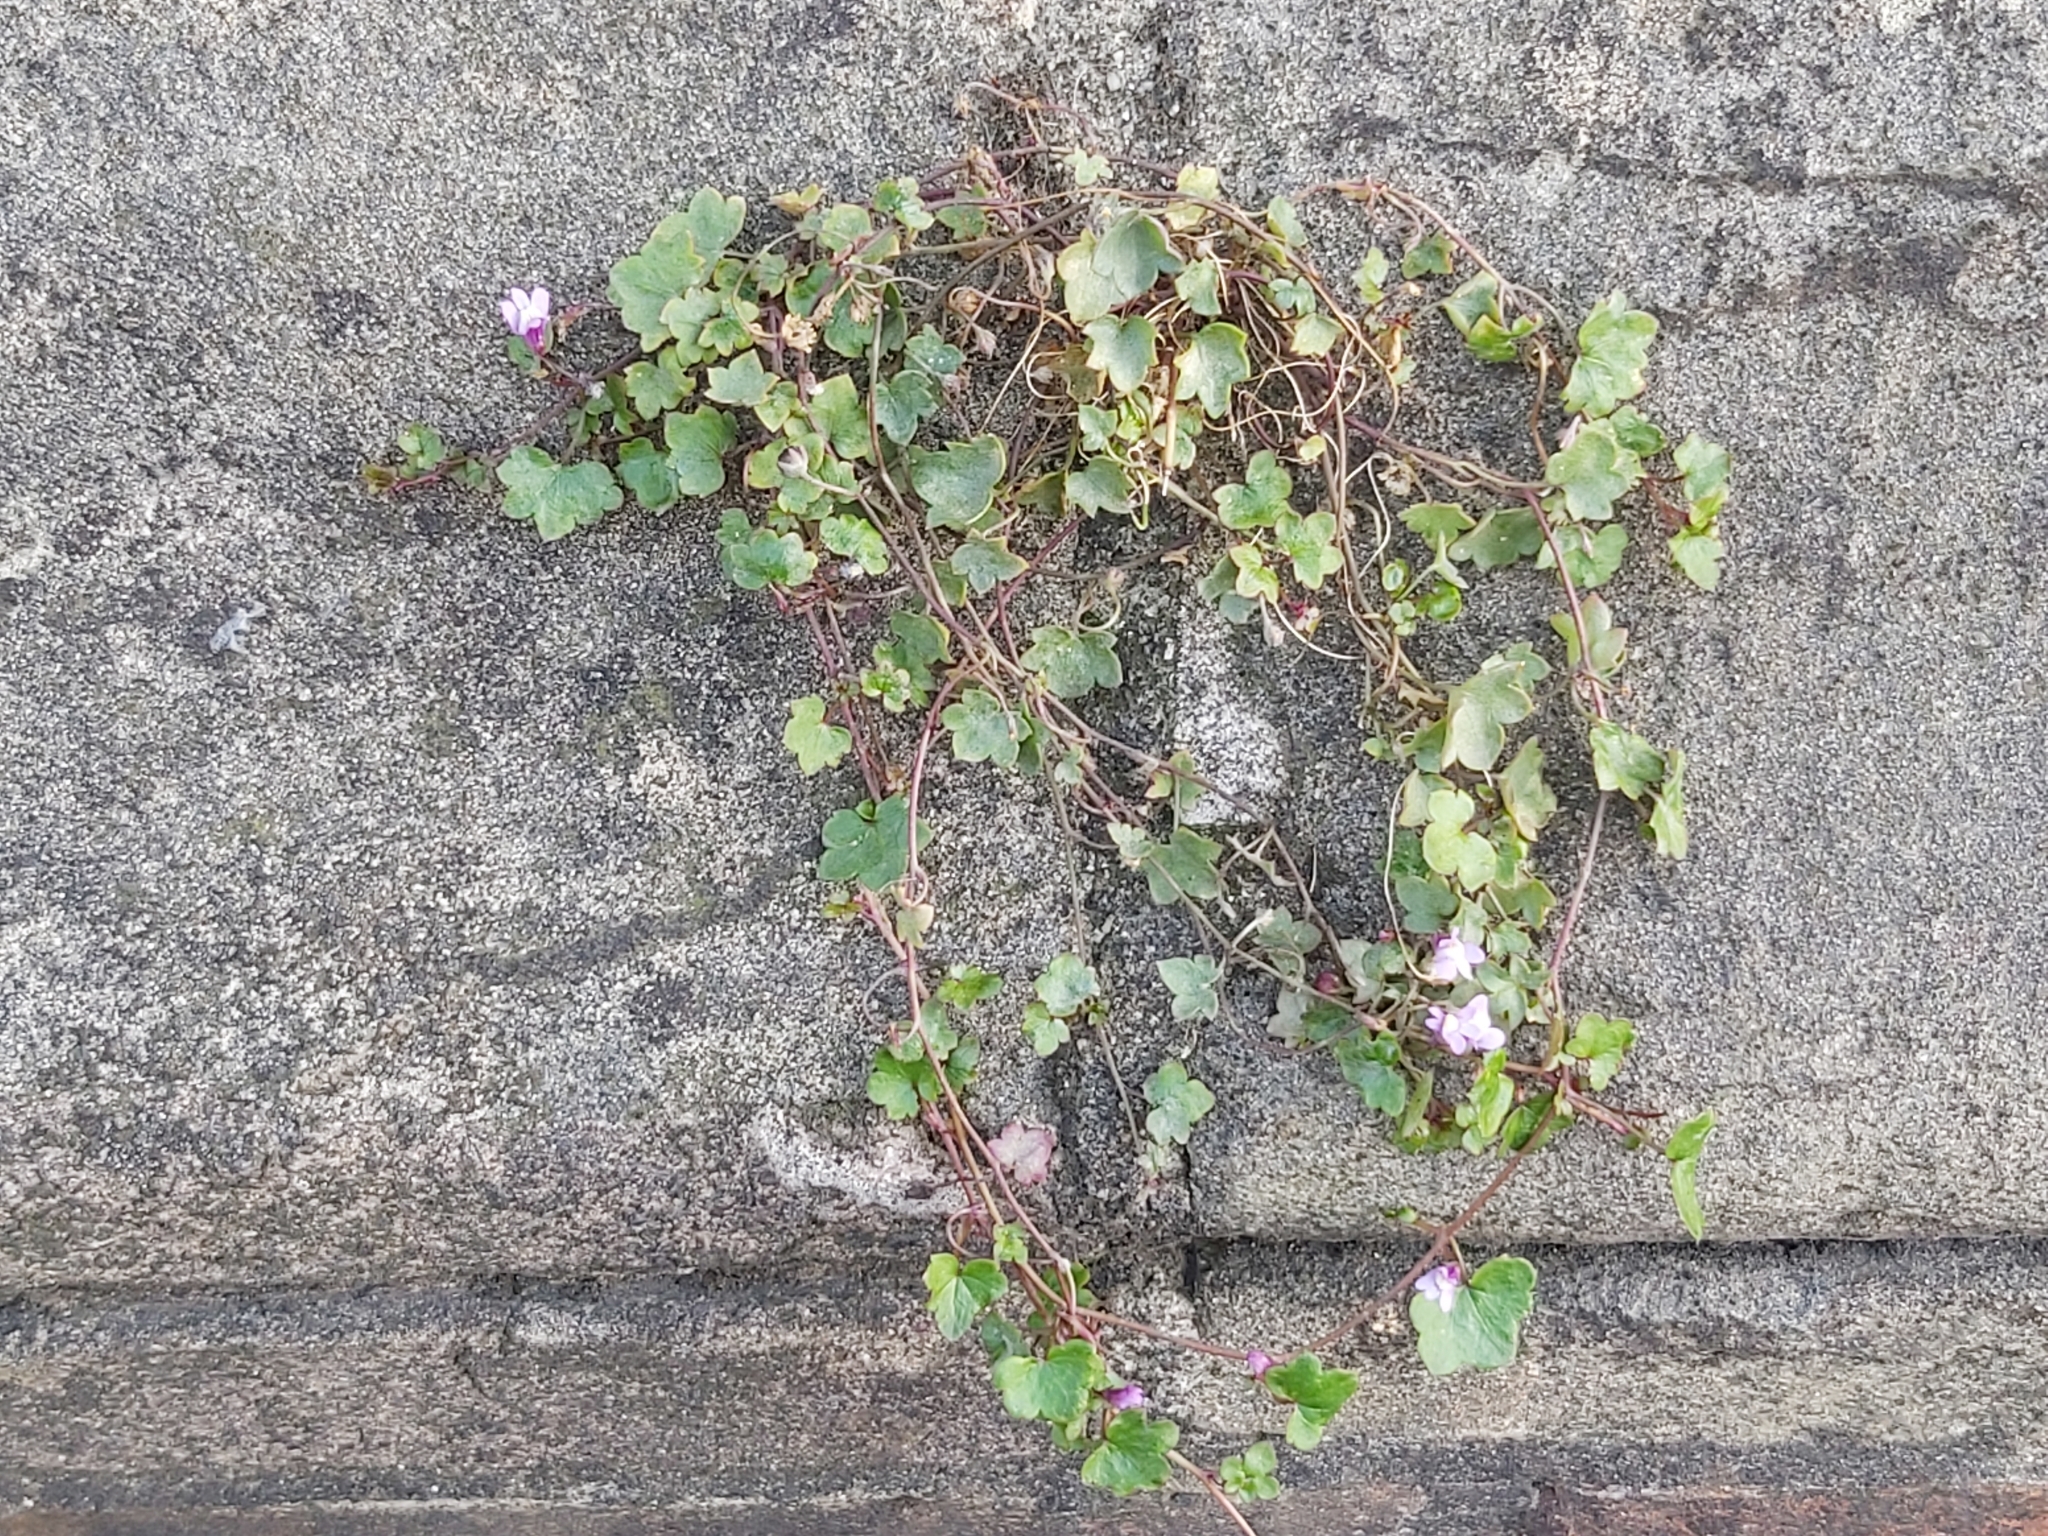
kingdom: Plantae
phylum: Tracheophyta
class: Magnoliopsida
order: Lamiales
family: Plantaginaceae
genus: Cymbalaria
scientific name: Cymbalaria muralis
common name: Ivy-leaved toadflax
